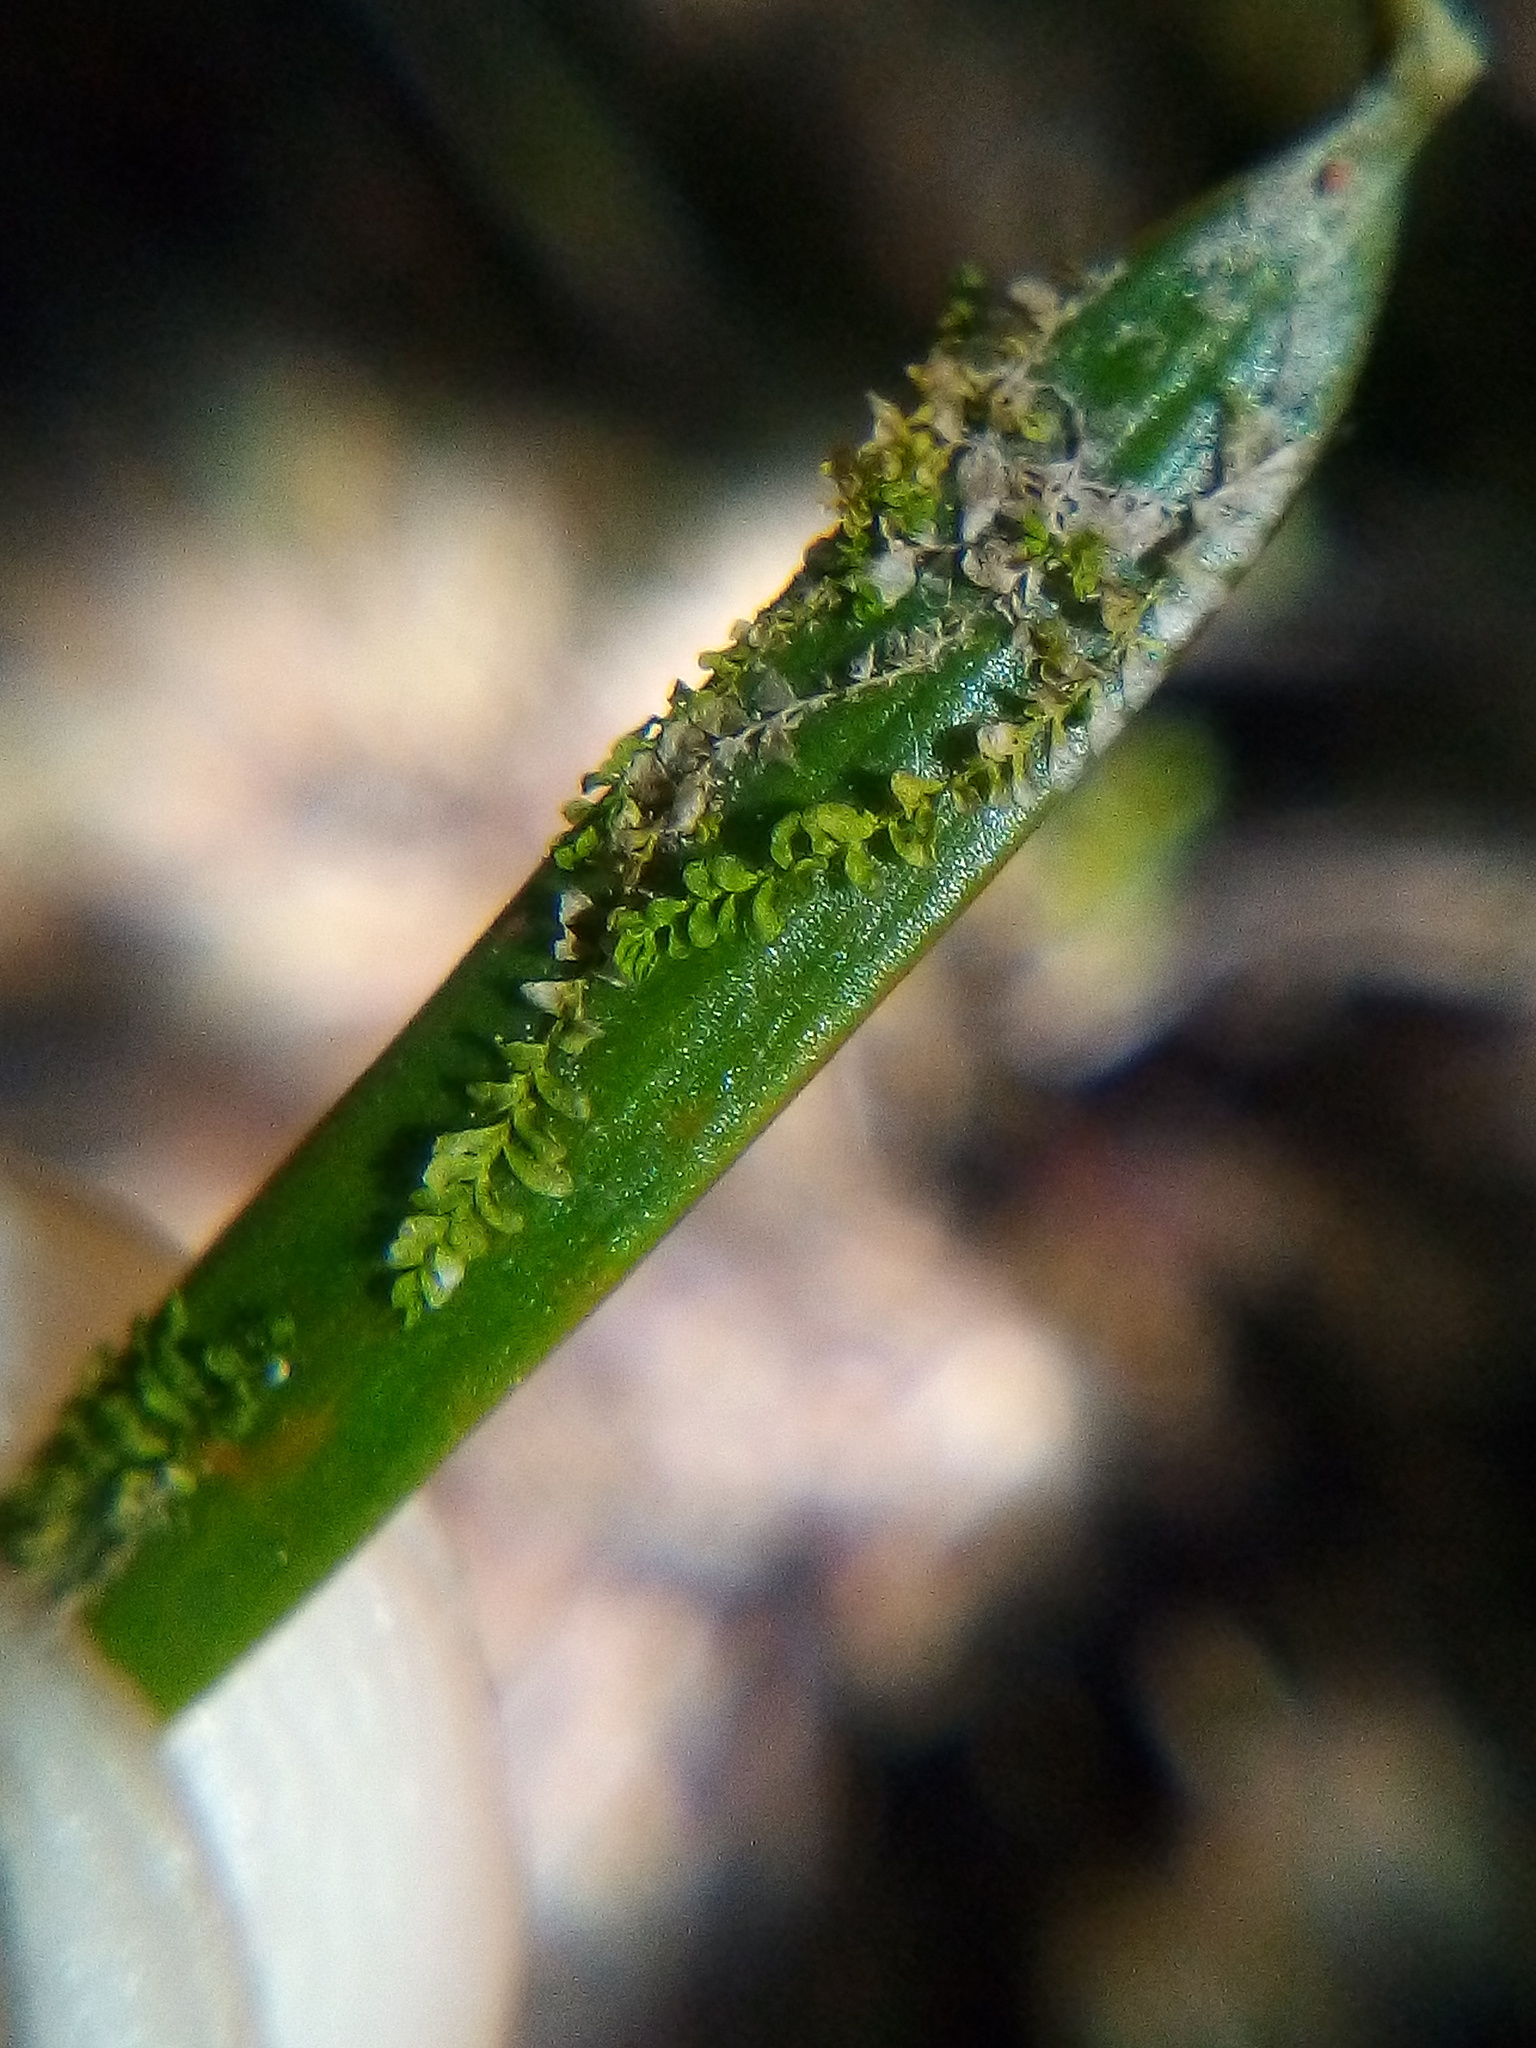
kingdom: Plantae
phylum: Marchantiophyta
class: Jungermanniopsida
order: Porellales
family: Lejeuneaceae
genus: Siphonolejeunea
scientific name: Siphonolejeunea nudipes
